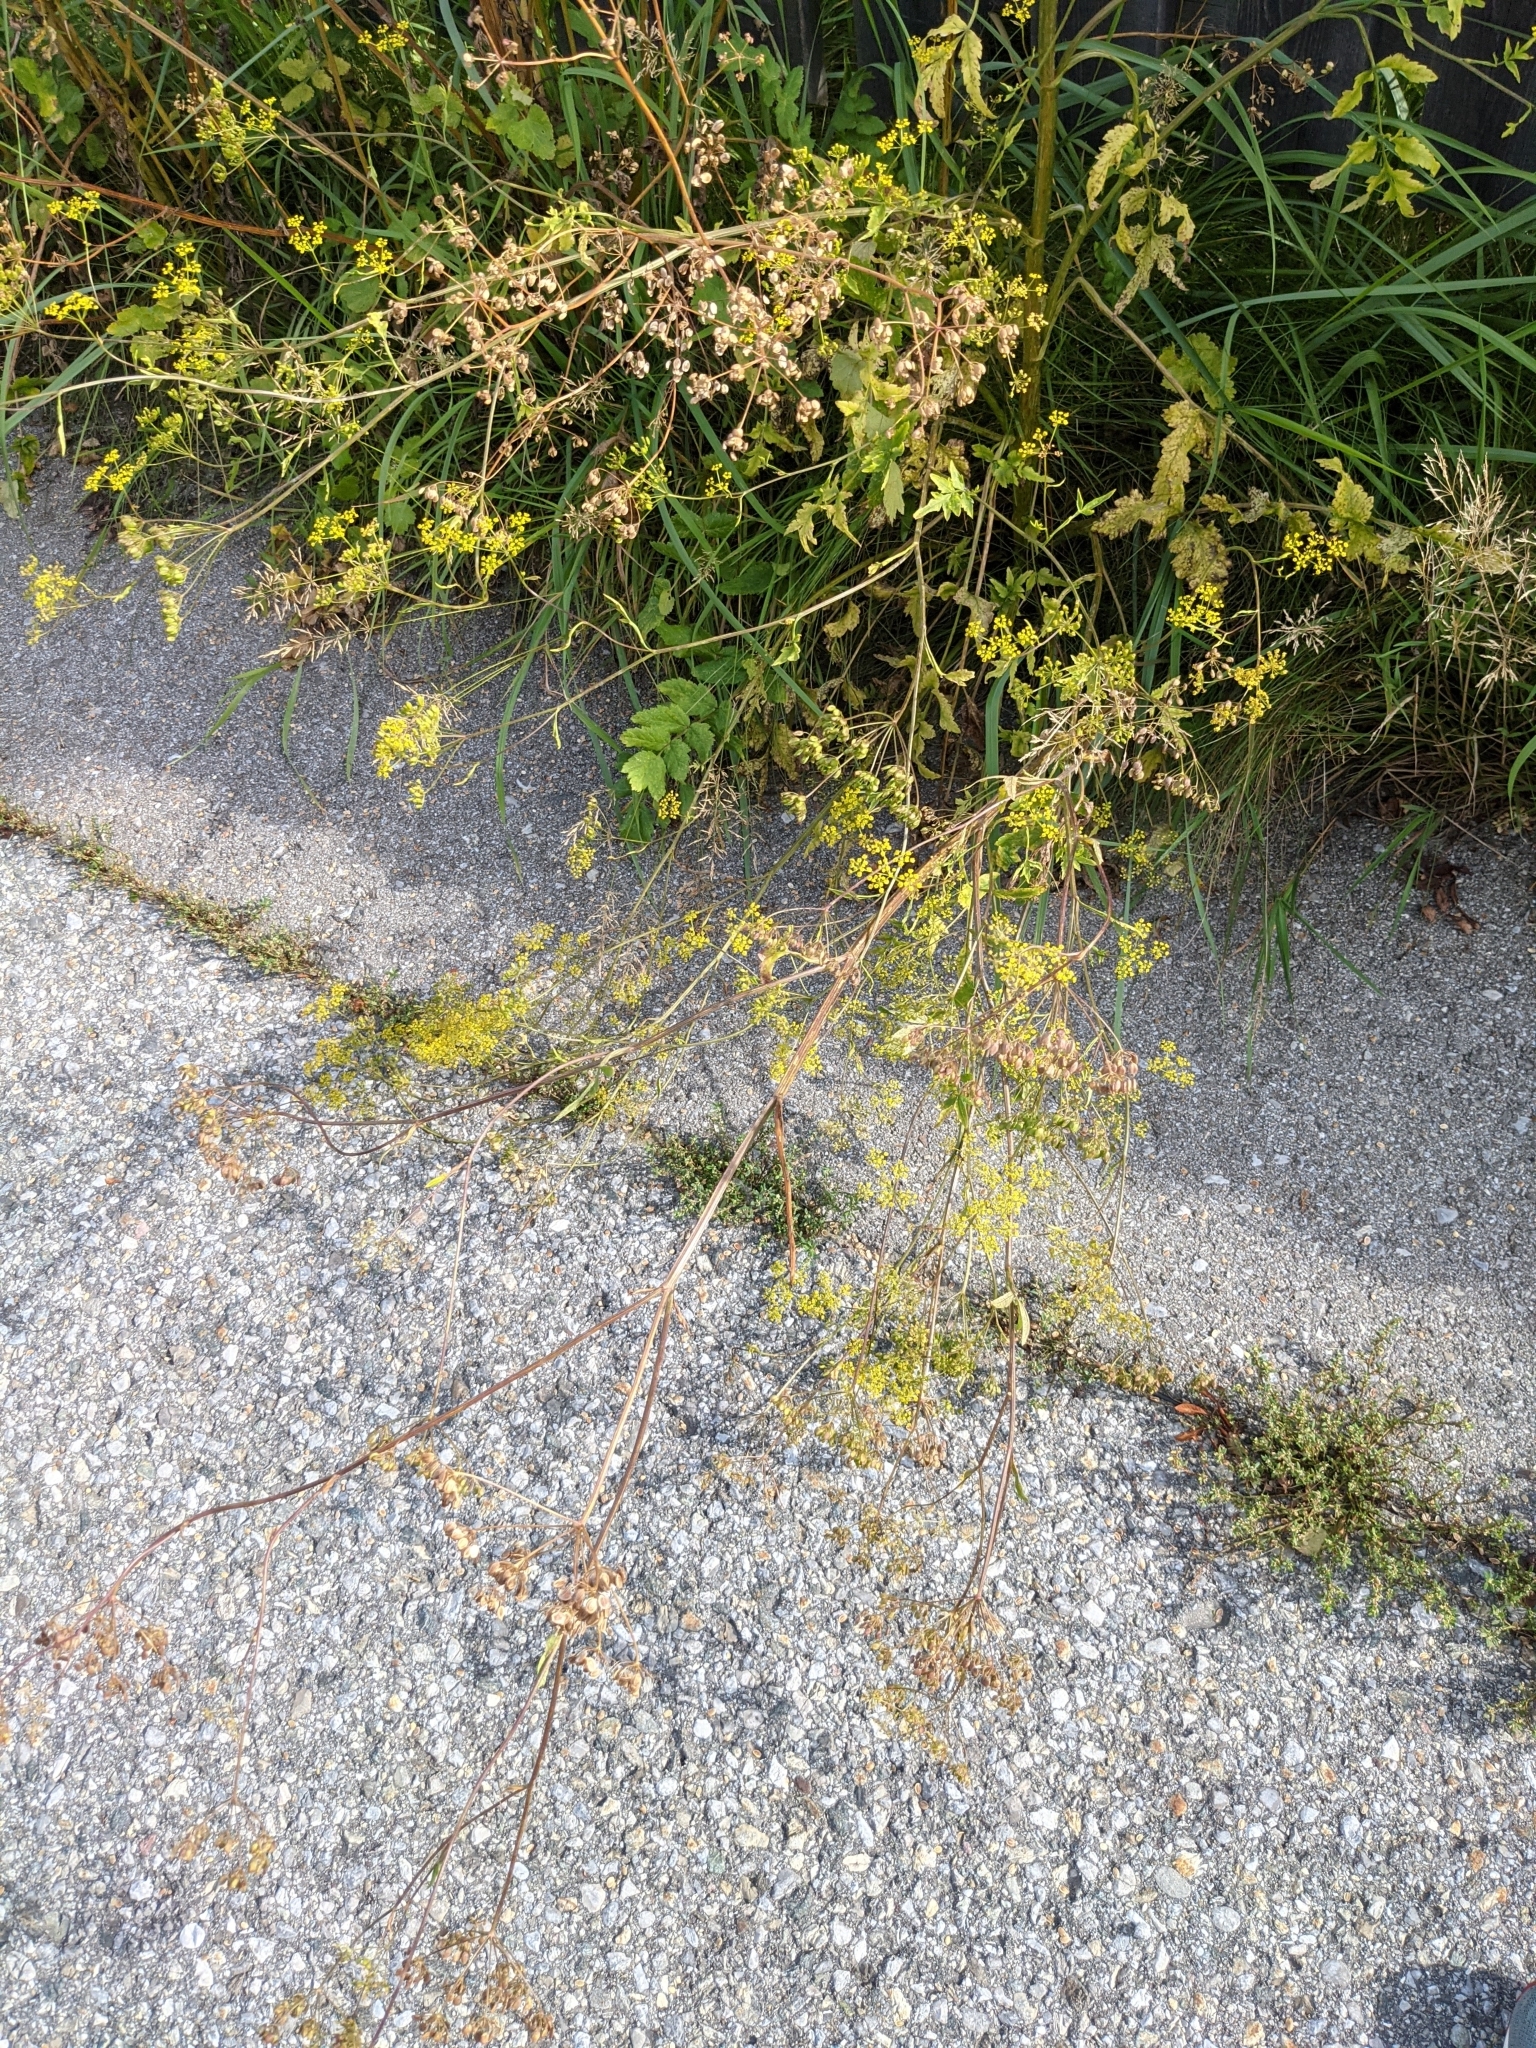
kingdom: Plantae
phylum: Tracheophyta
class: Magnoliopsida
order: Apiales
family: Apiaceae
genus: Pastinaca
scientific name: Pastinaca sativa
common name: Wild parsnip
